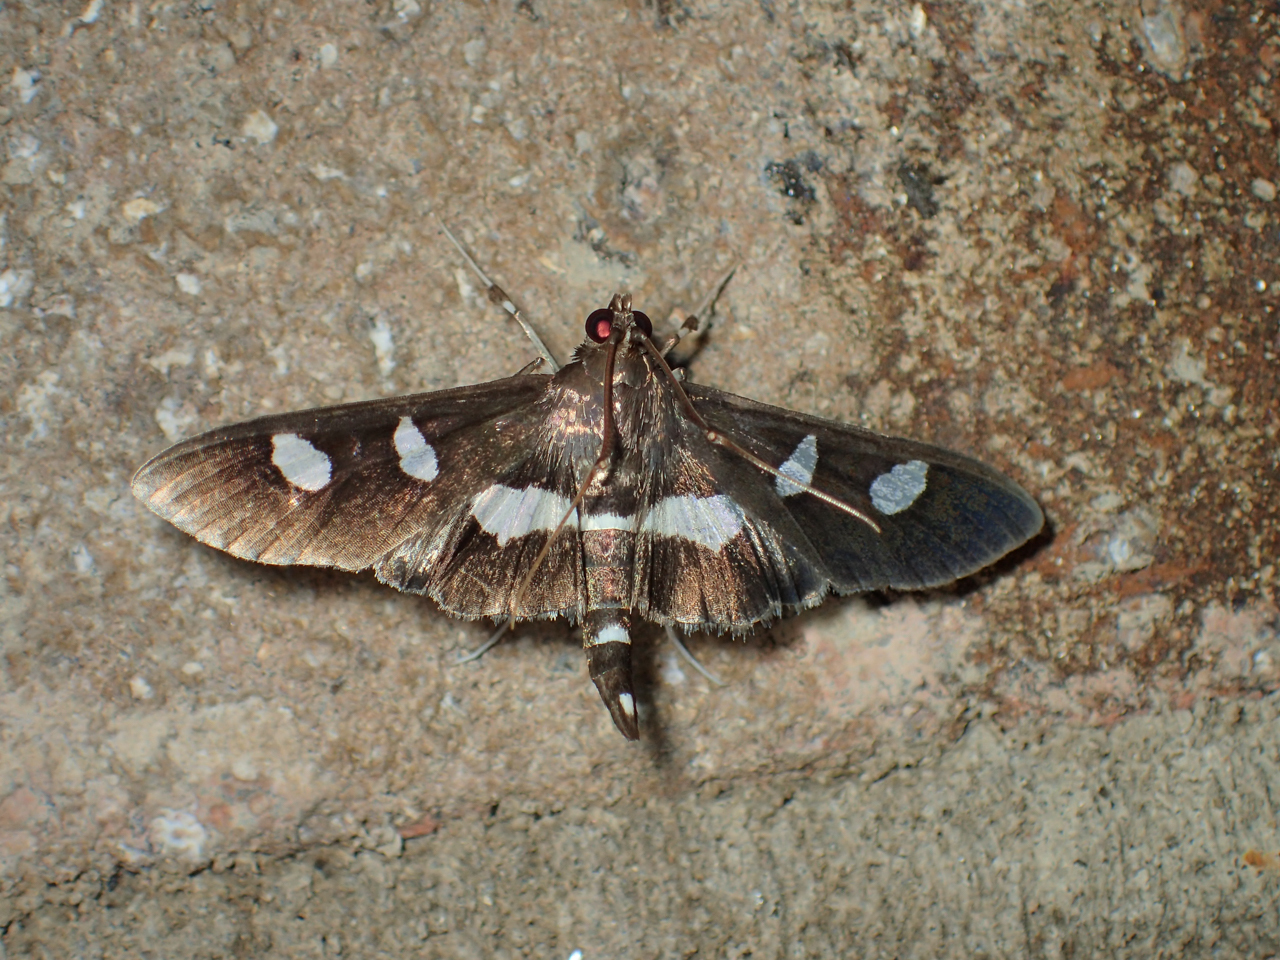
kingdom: Animalia
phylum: Arthropoda
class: Insecta
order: Lepidoptera
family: Crambidae
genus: Desmia
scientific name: Desmia
